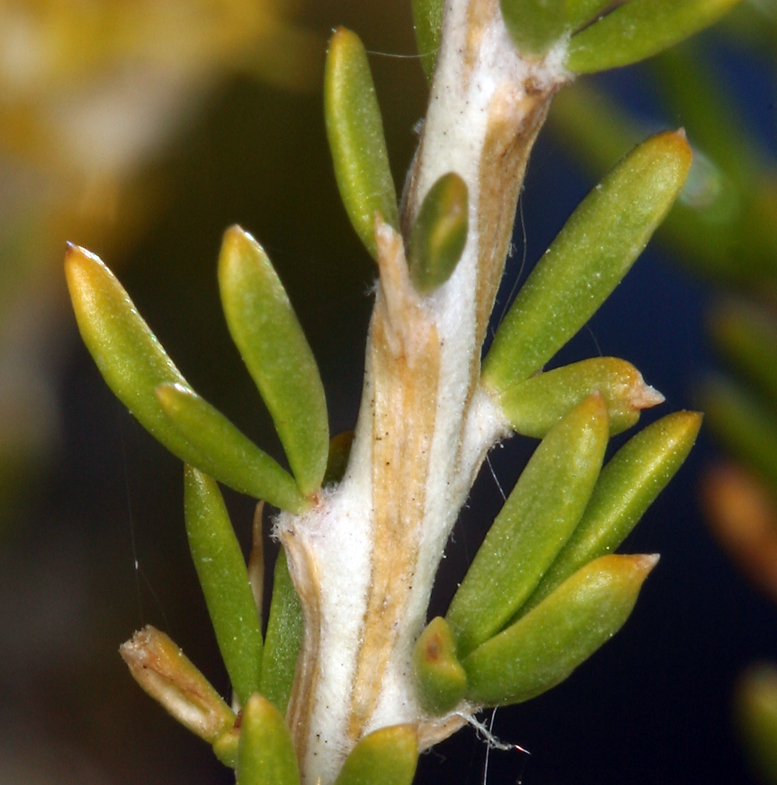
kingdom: Plantae
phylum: Tracheophyta
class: Magnoliopsida
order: Asterales
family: Asteraceae
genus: Tetradymia
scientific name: Tetradymia glabrata
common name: Smooth tetradymia
